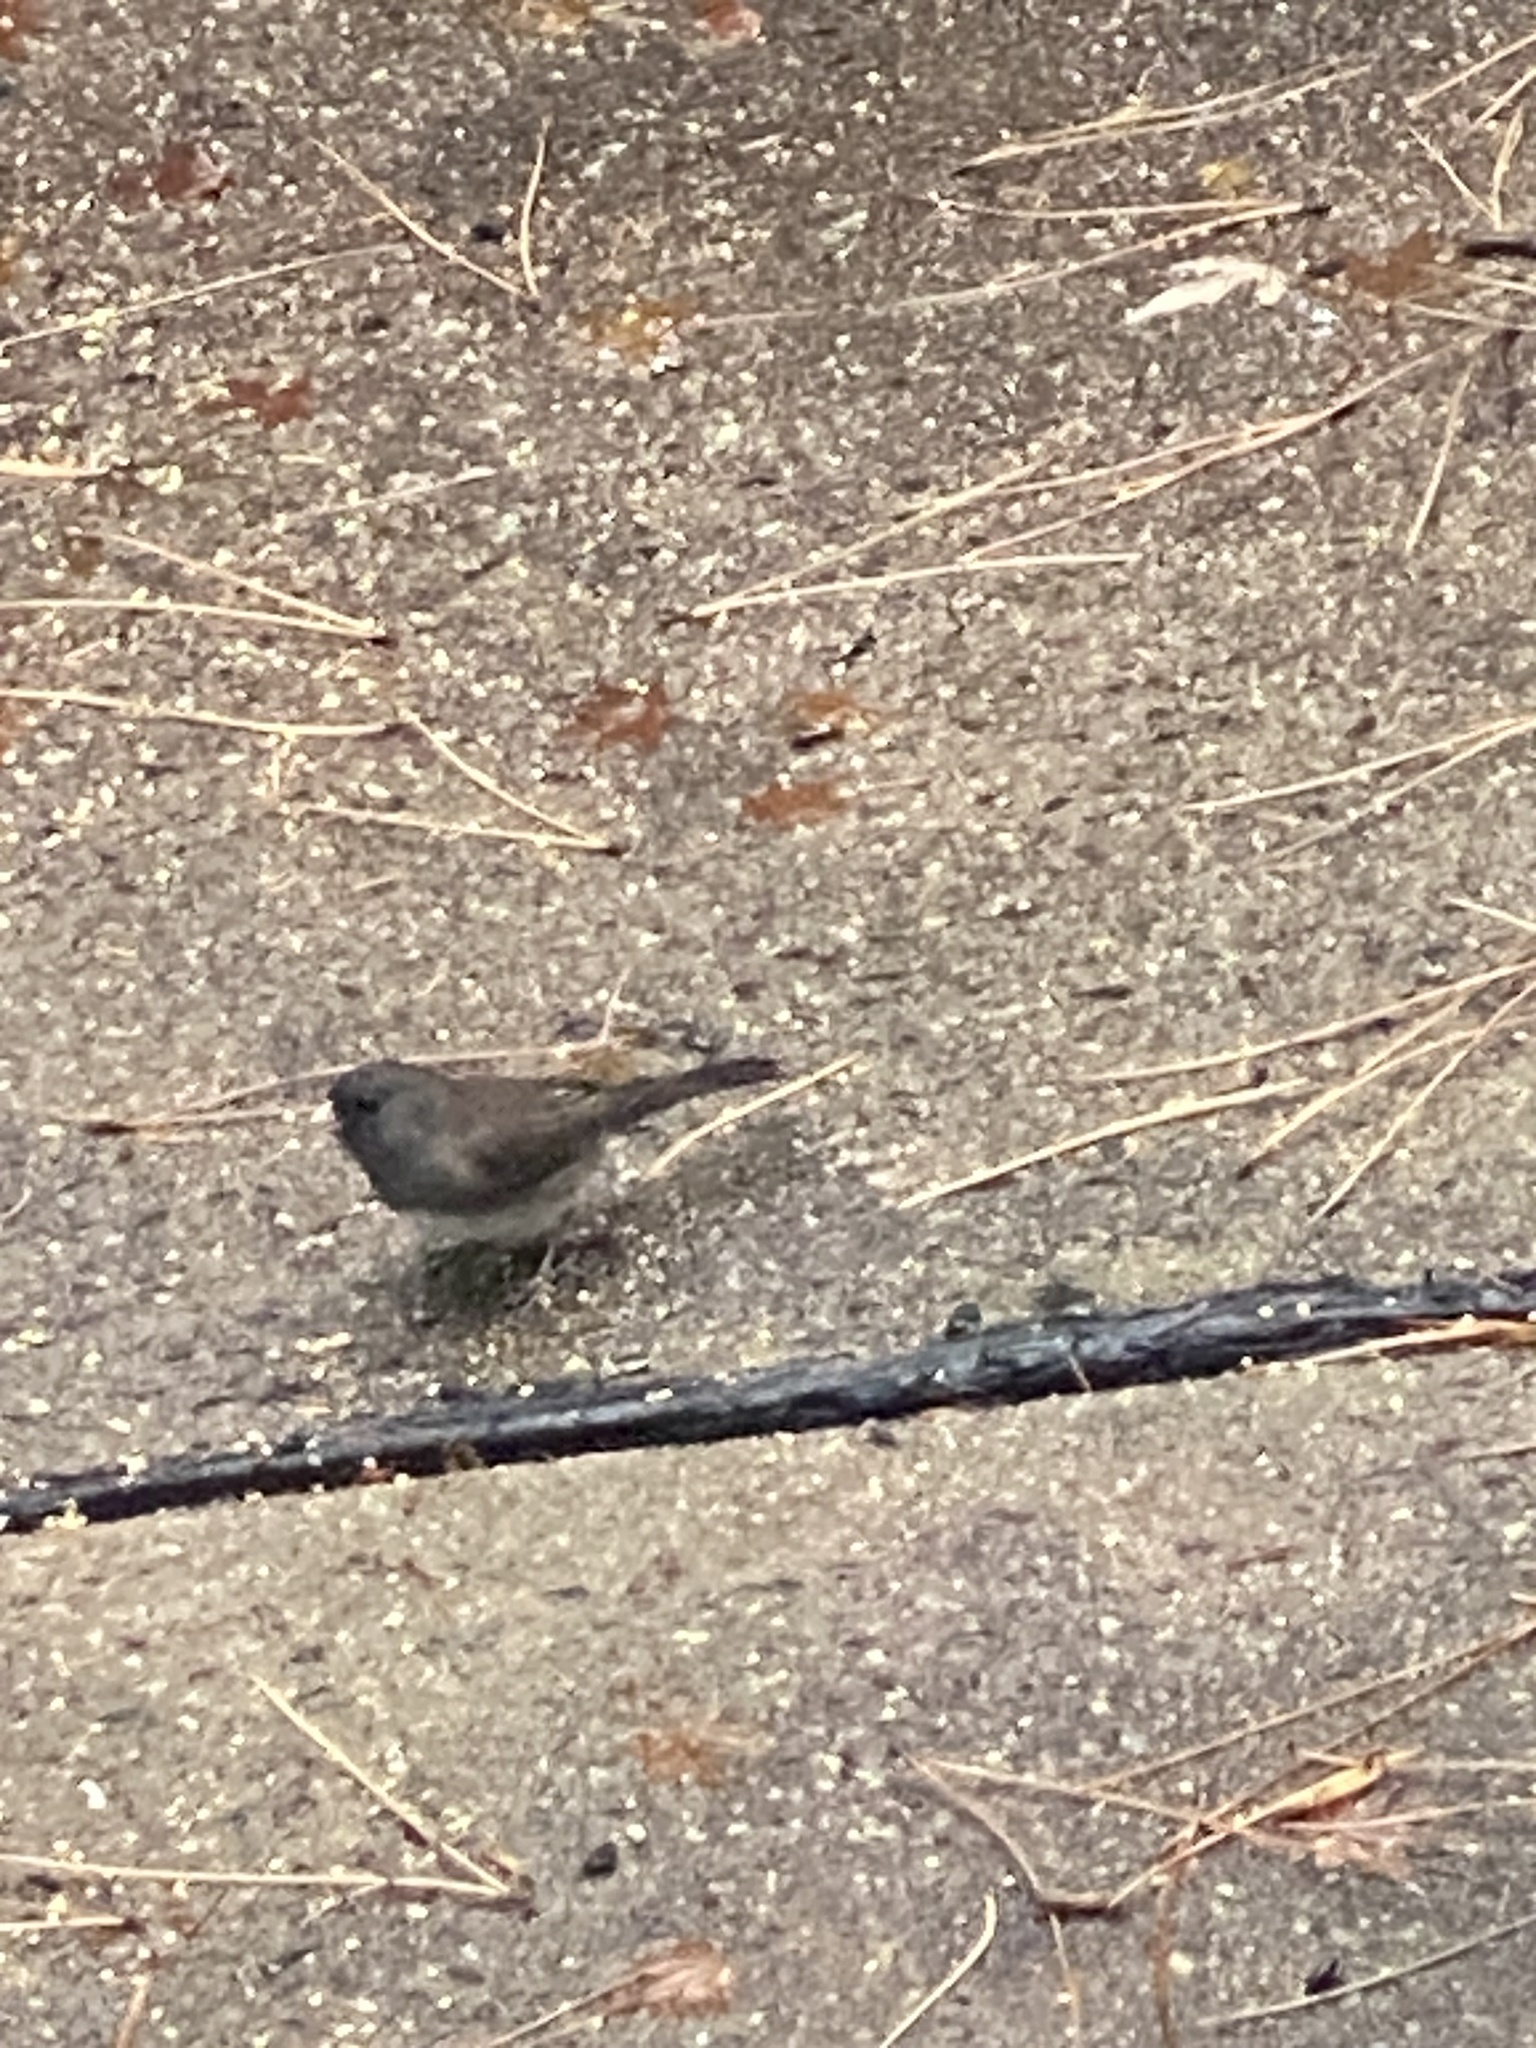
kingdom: Animalia
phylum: Chordata
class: Aves
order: Passeriformes
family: Passerellidae
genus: Junco
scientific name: Junco hyemalis
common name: Dark-eyed junco
